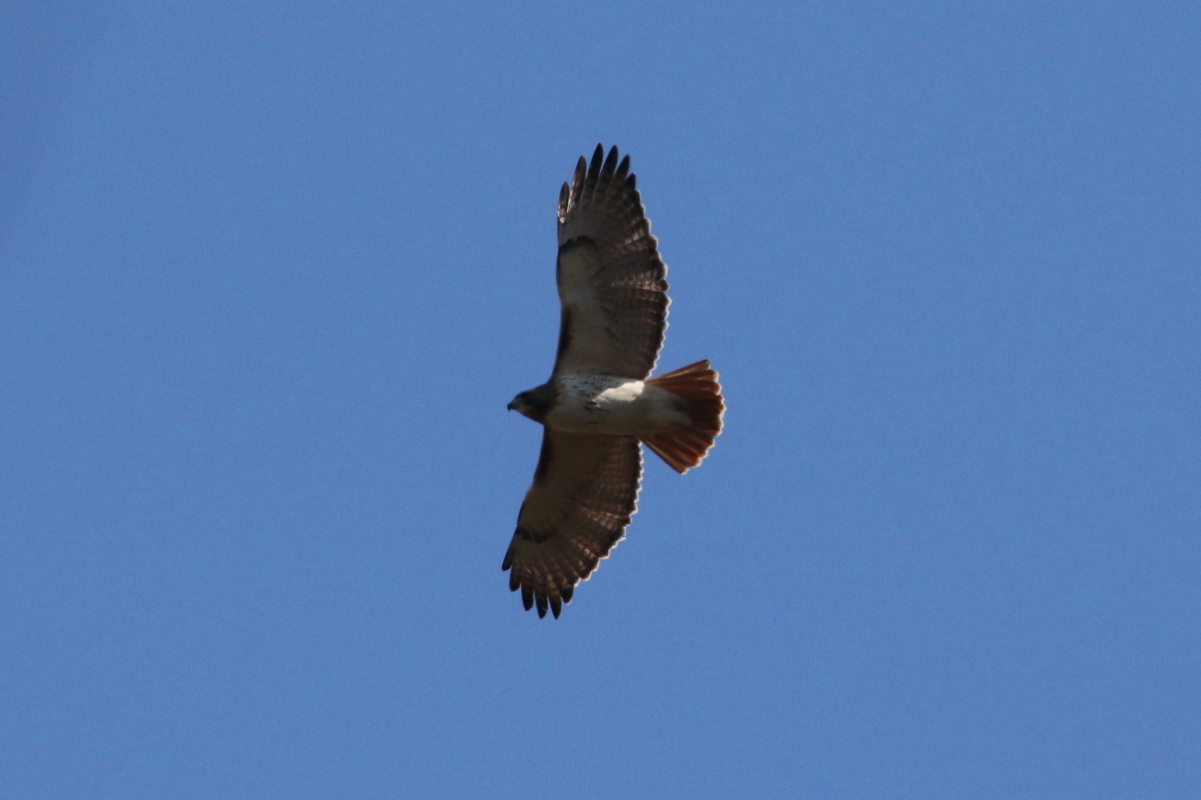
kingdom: Animalia
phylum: Chordata
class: Aves
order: Accipitriformes
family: Accipitridae
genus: Buteo
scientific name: Buteo jamaicensis
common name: Red-tailed hawk
